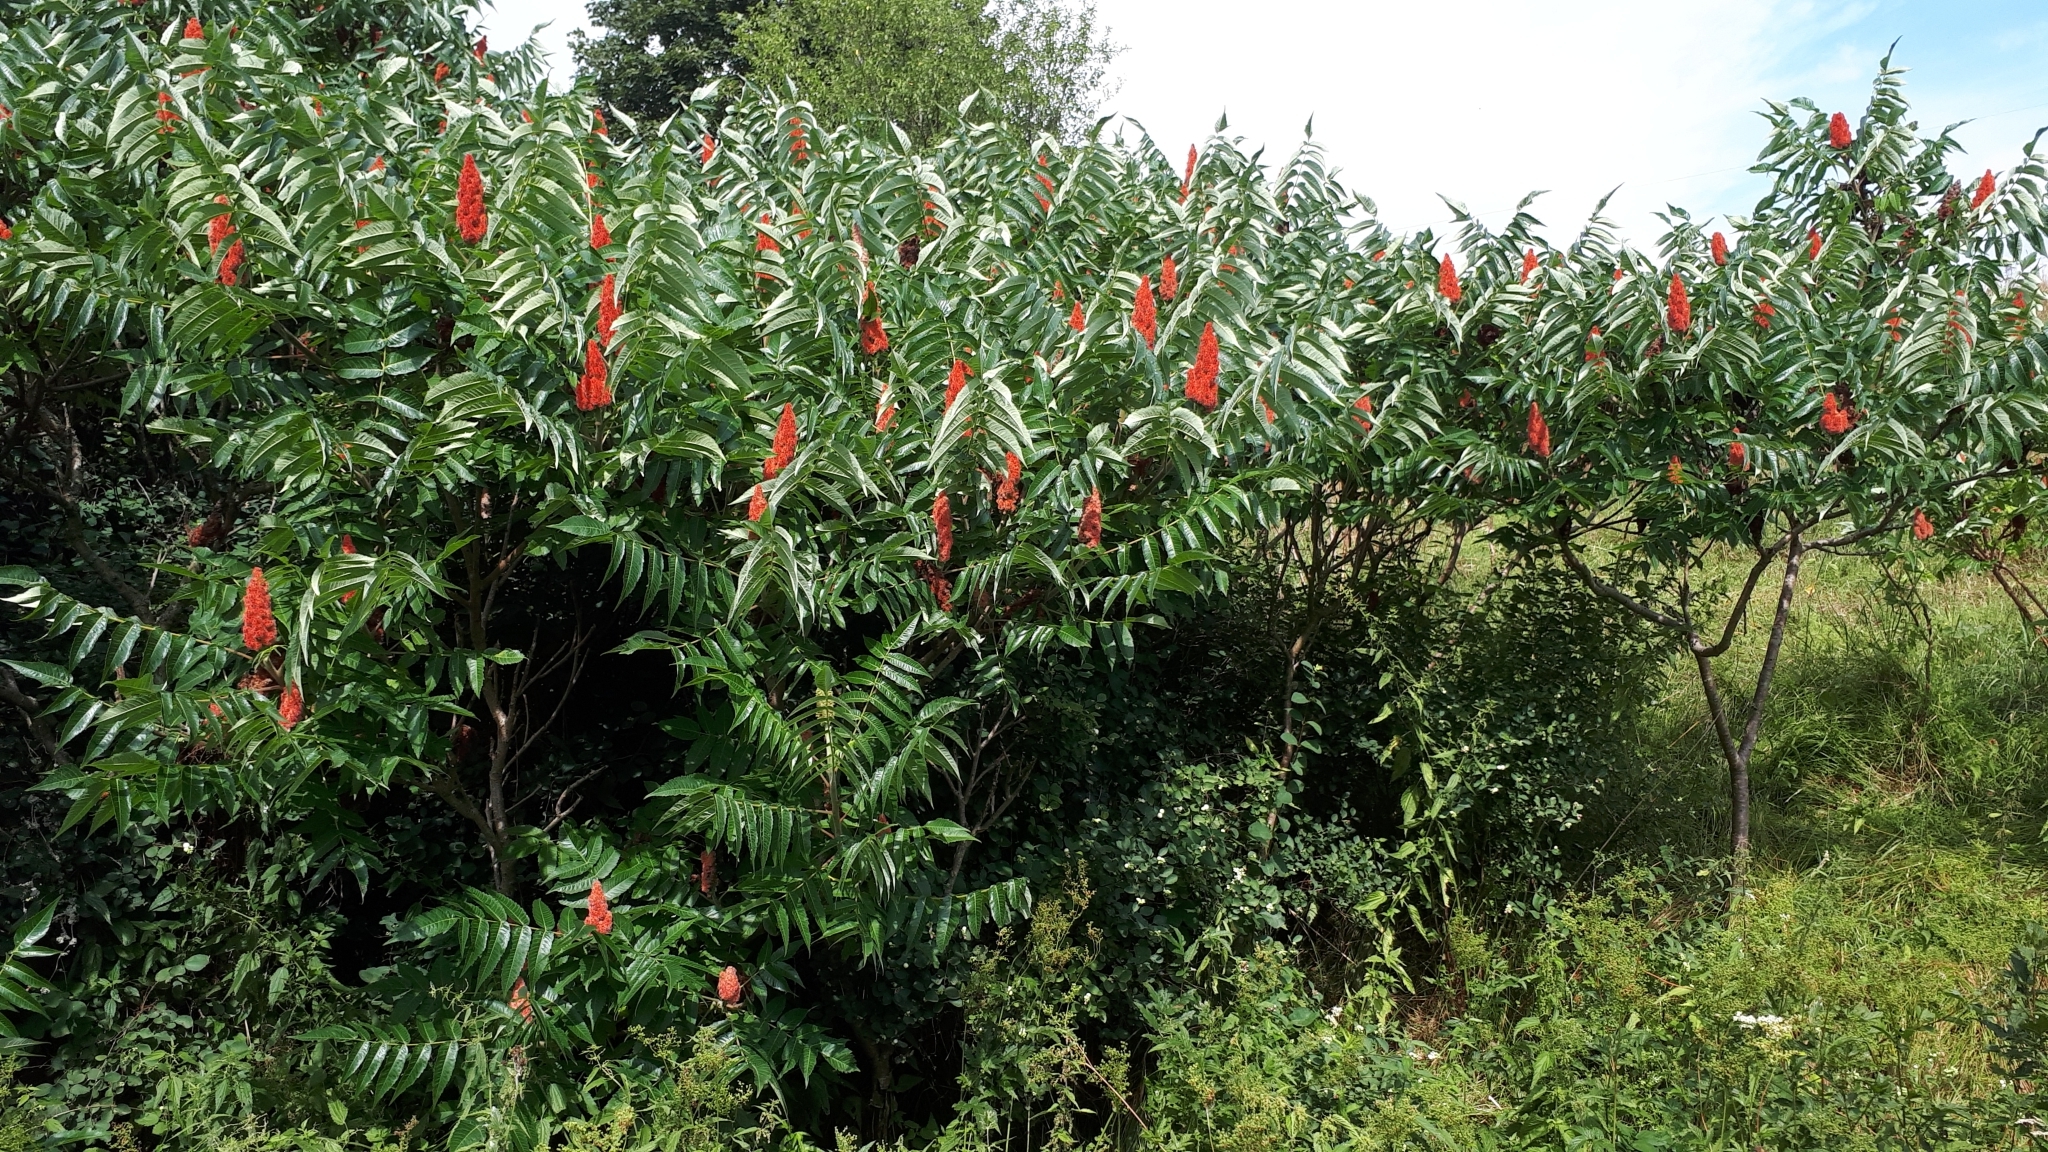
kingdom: Plantae
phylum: Tracheophyta
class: Magnoliopsida
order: Sapindales
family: Anacardiaceae
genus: Rhus
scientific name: Rhus typhina
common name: Staghorn sumac
